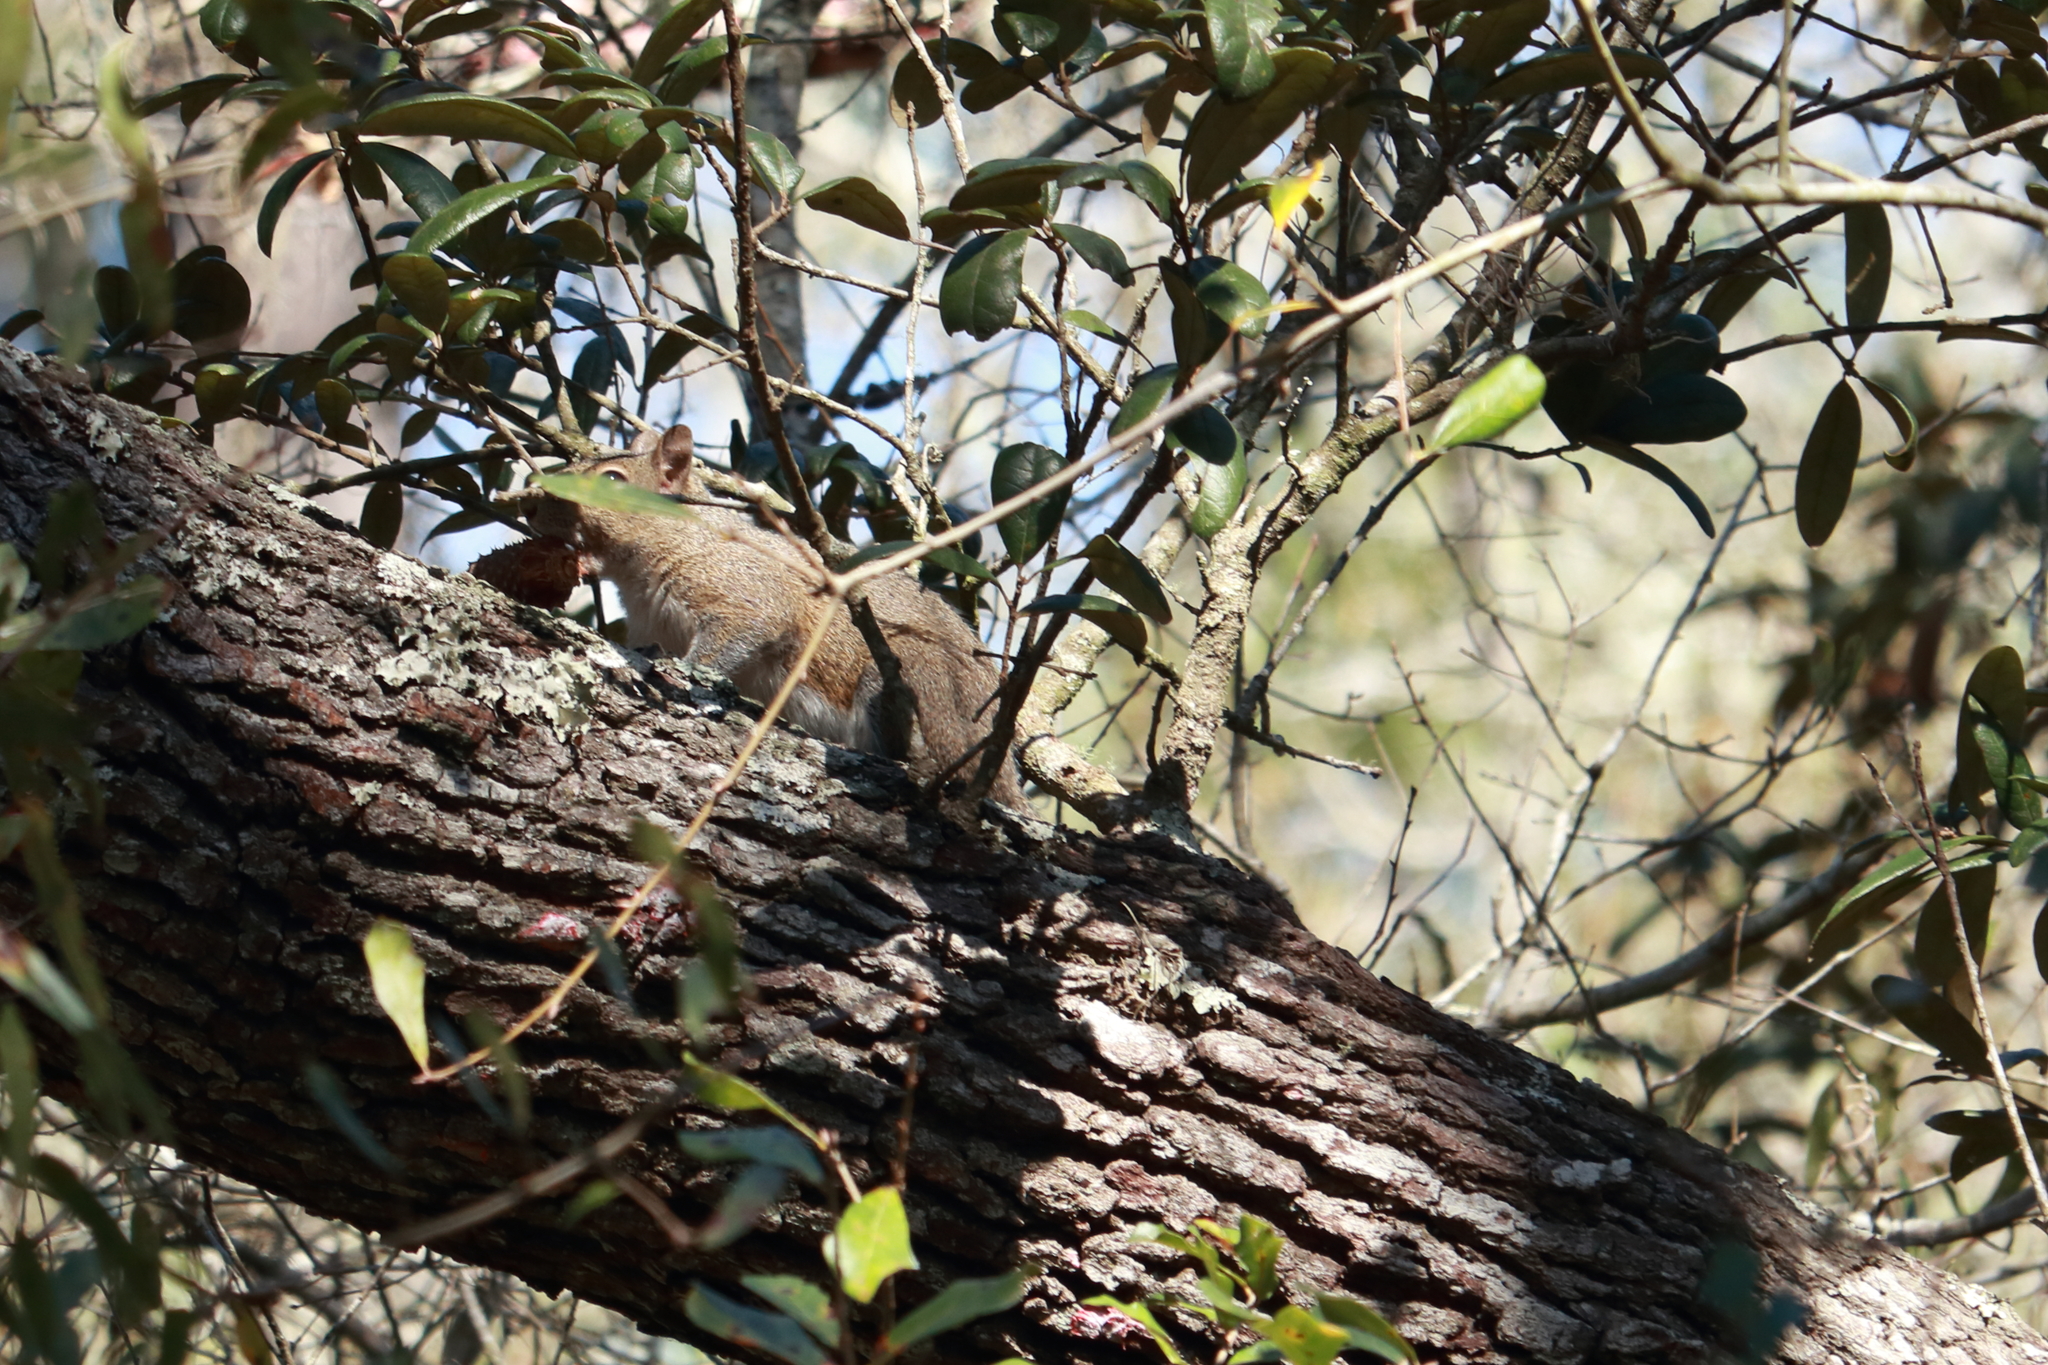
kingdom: Animalia
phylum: Chordata
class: Mammalia
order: Rodentia
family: Sciuridae
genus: Sciurus
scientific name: Sciurus carolinensis
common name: Eastern gray squirrel
